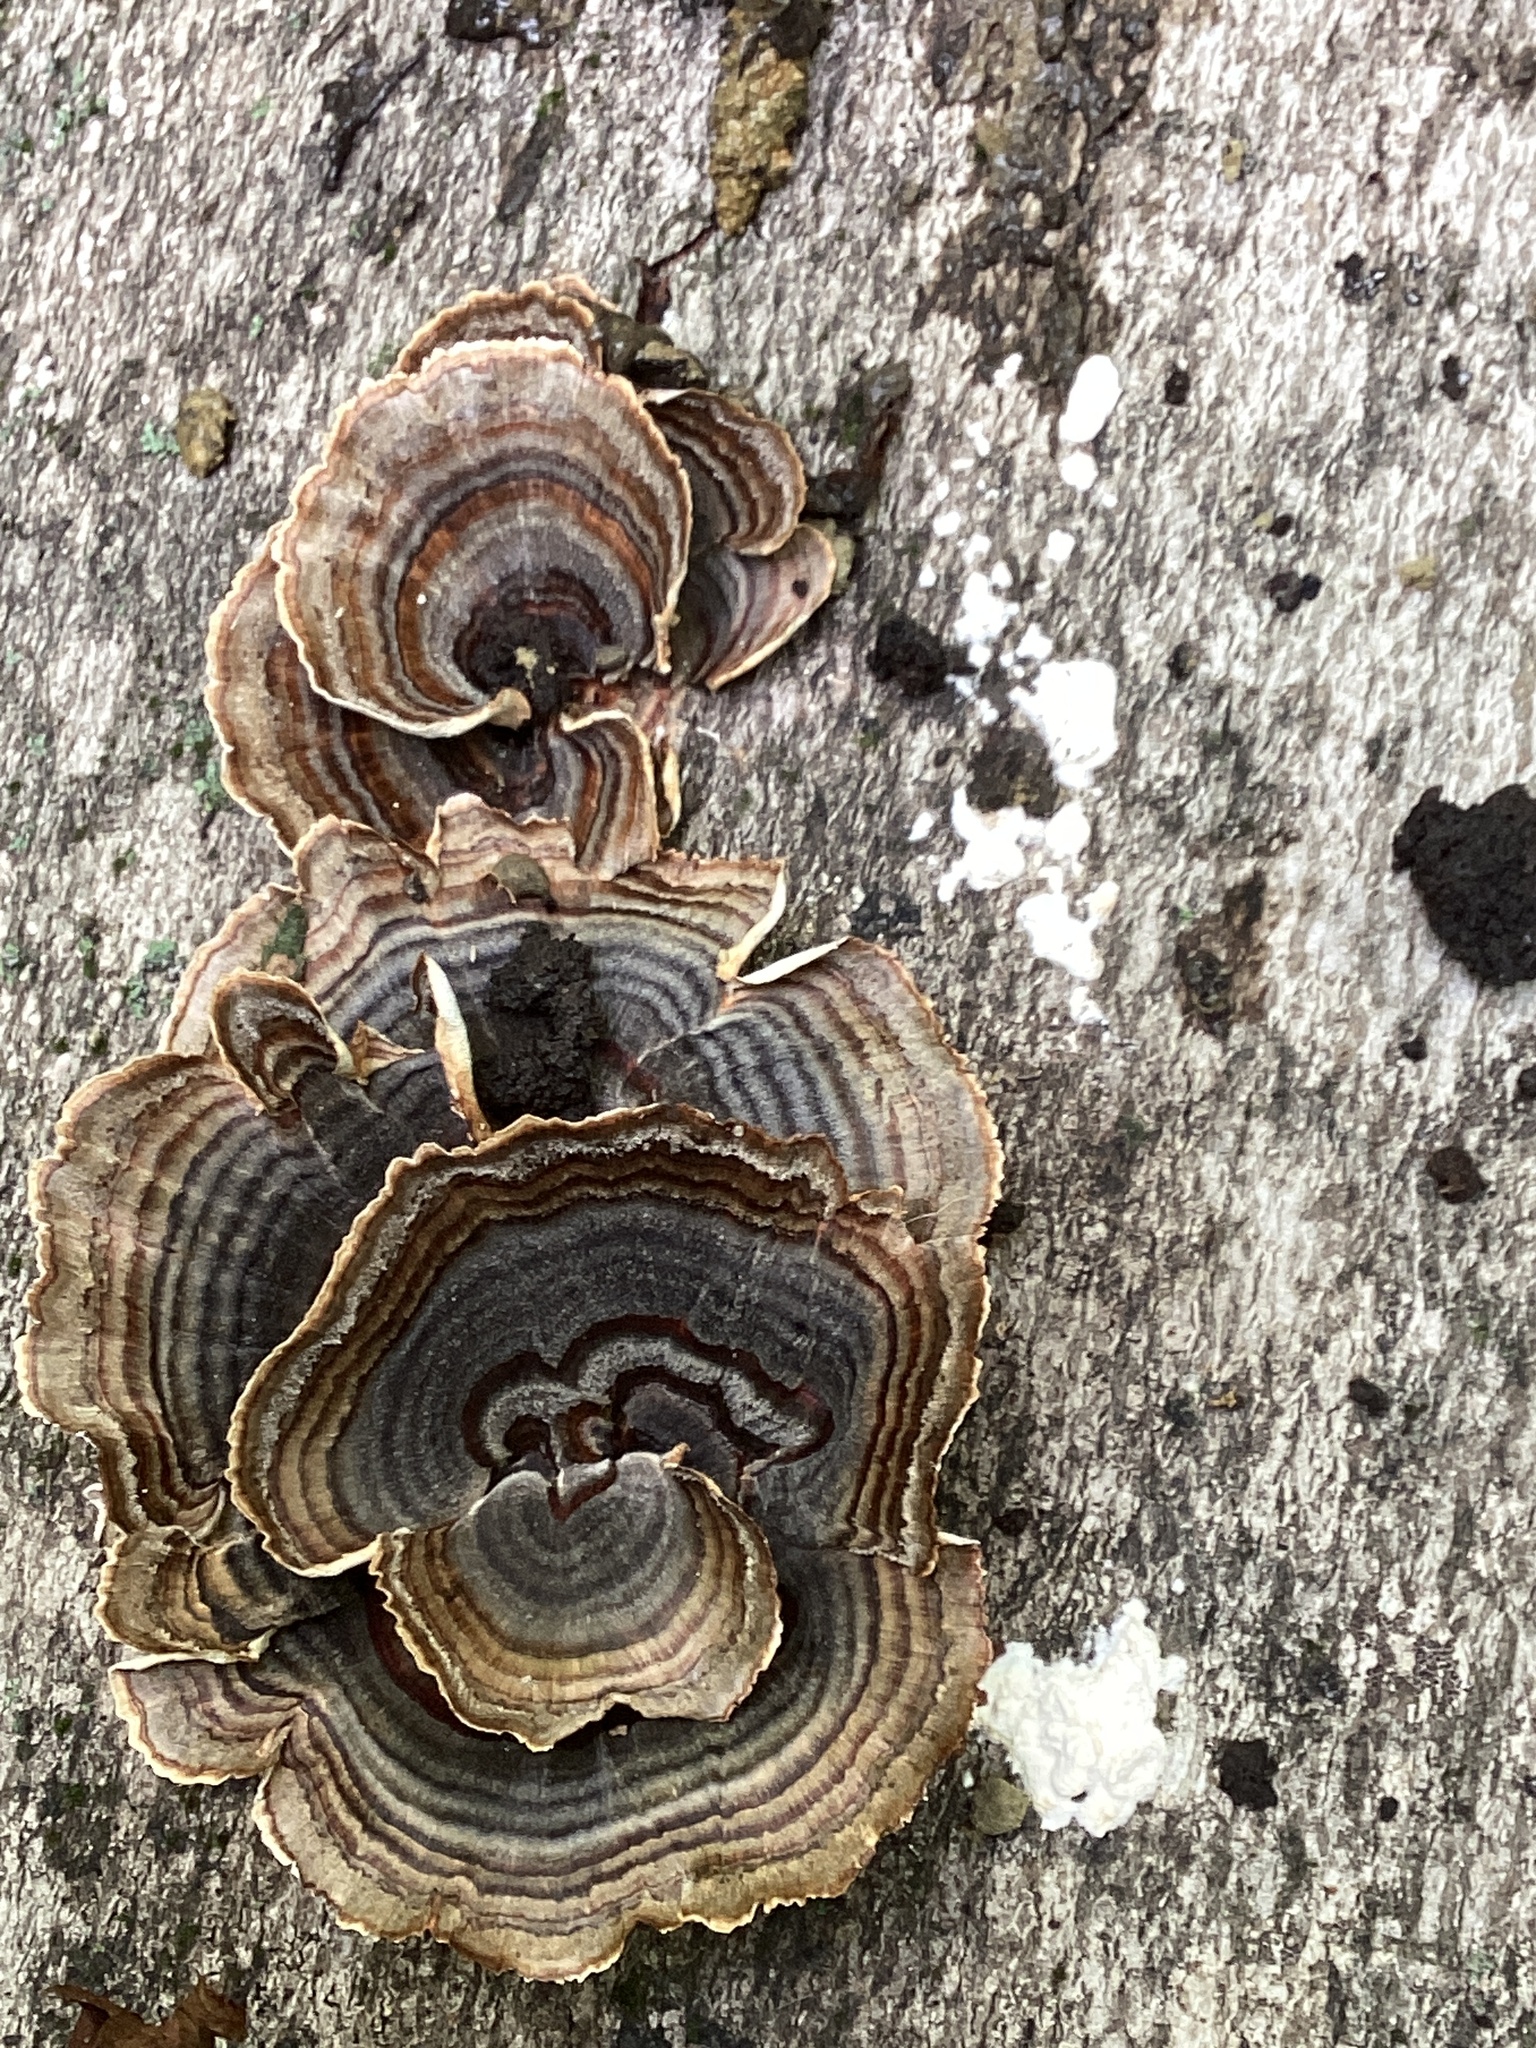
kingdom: Fungi
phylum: Basidiomycota
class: Agaricomycetes
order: Polyporales
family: Polyporaceae
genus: Trametes
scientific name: Trametes versicolor
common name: Turkeytail
